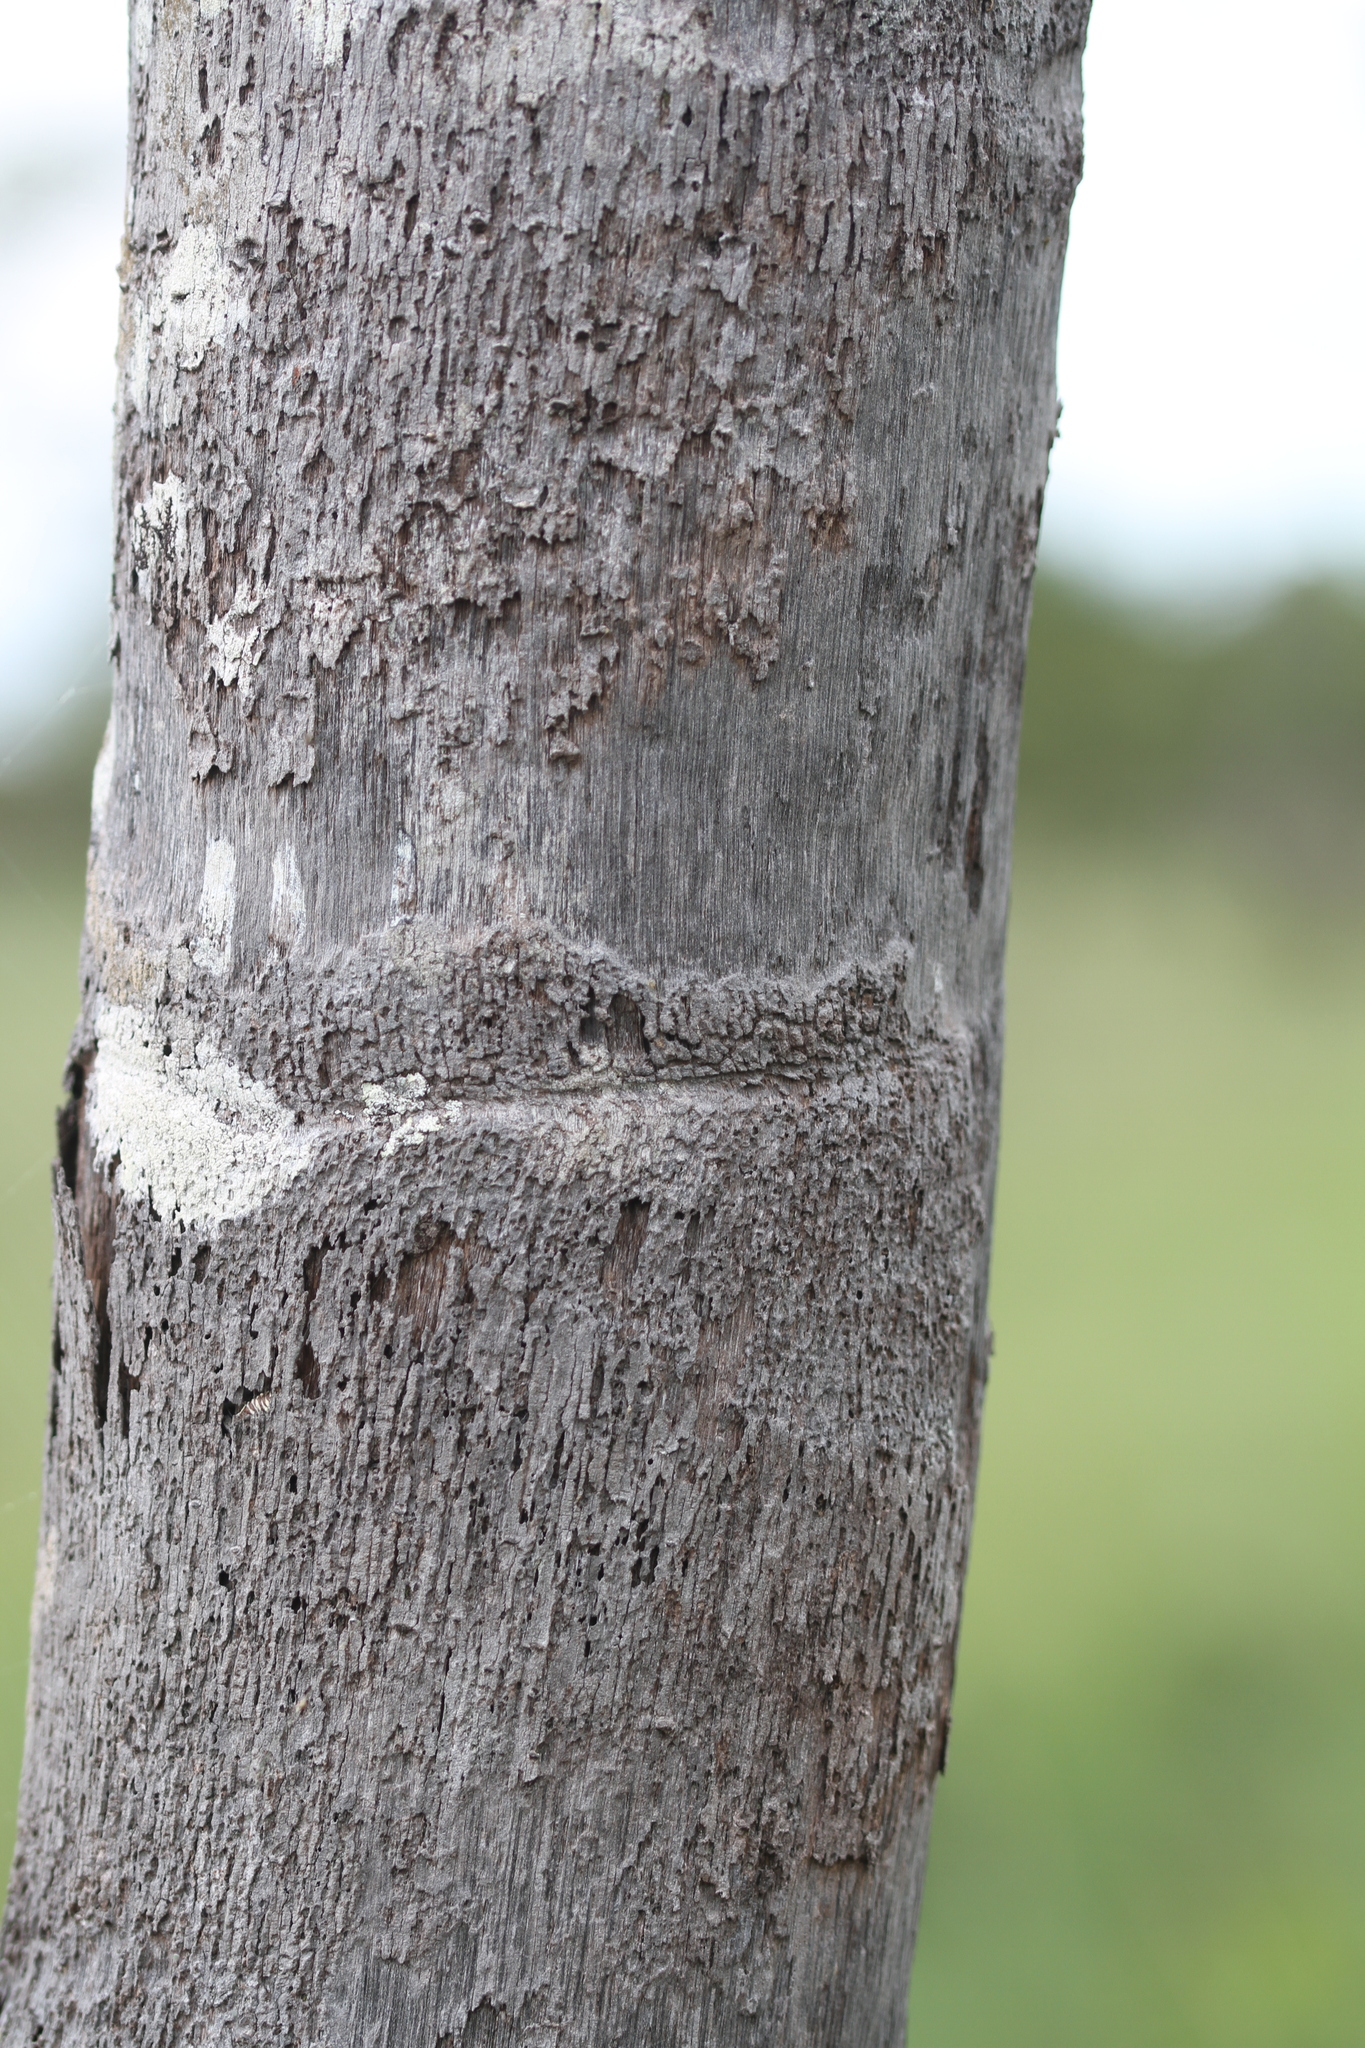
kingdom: Plantae
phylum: Tracheophyta
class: Liliopsida
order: Arecales
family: Arecaceae
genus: Astrocaryum
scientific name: Astrocaryum vulgare
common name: Tucum palm
